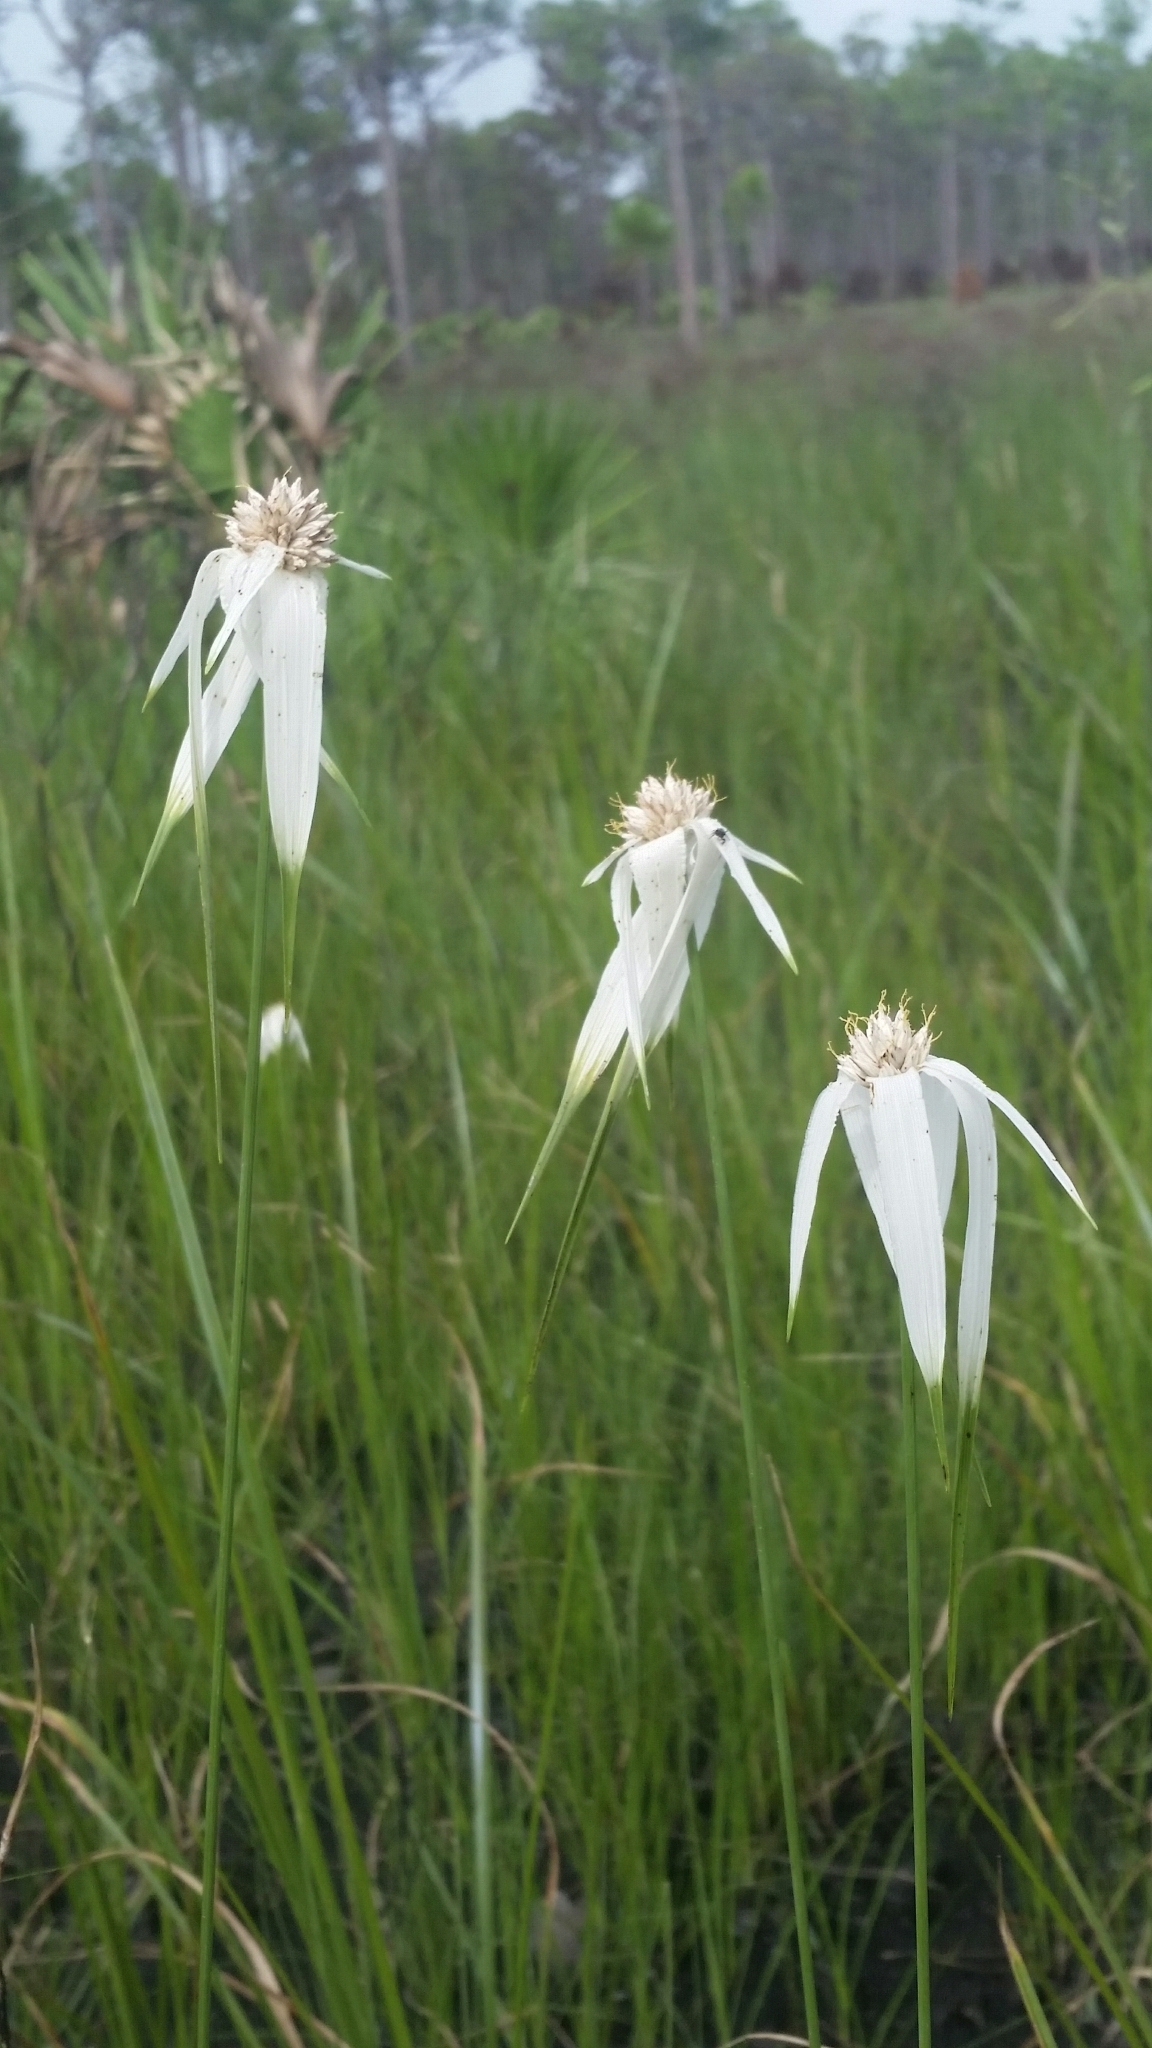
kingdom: Plantae
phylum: Tracheophyta
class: Liliopsida
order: Poales
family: Cyperaceae
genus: Rhynchospora
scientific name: Rhynchospora latifolia
